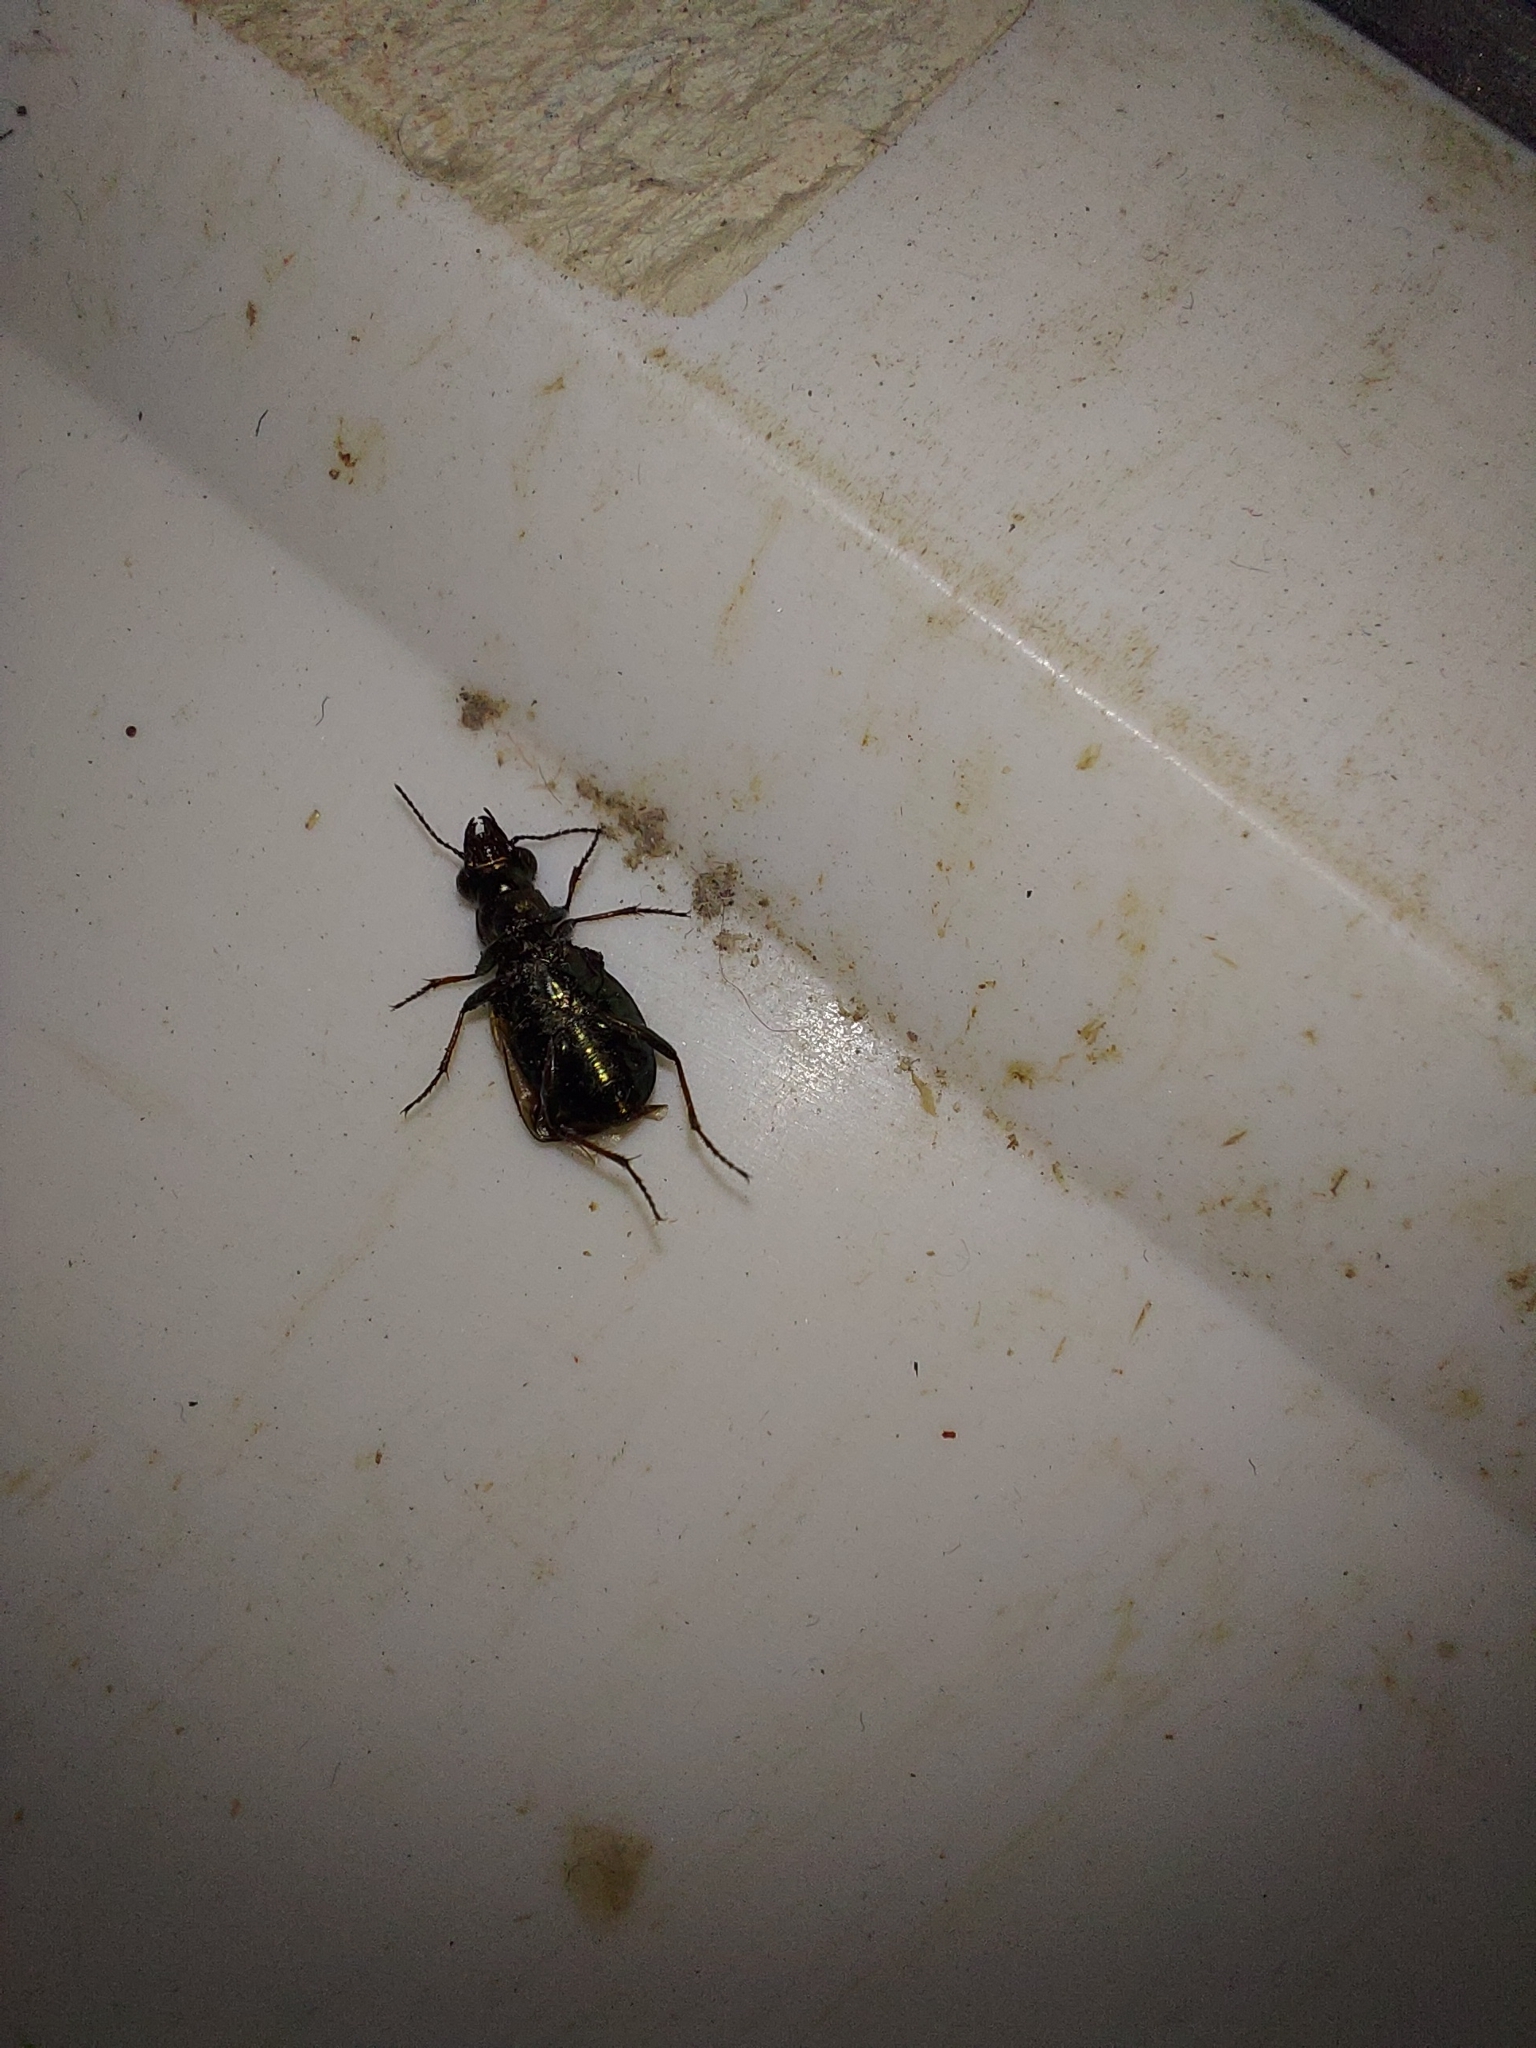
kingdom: Animalia
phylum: Arthropoda
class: Insecta
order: Coleoptera
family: Carabidae
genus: Elaphrus
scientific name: Elaphrus cupreus
